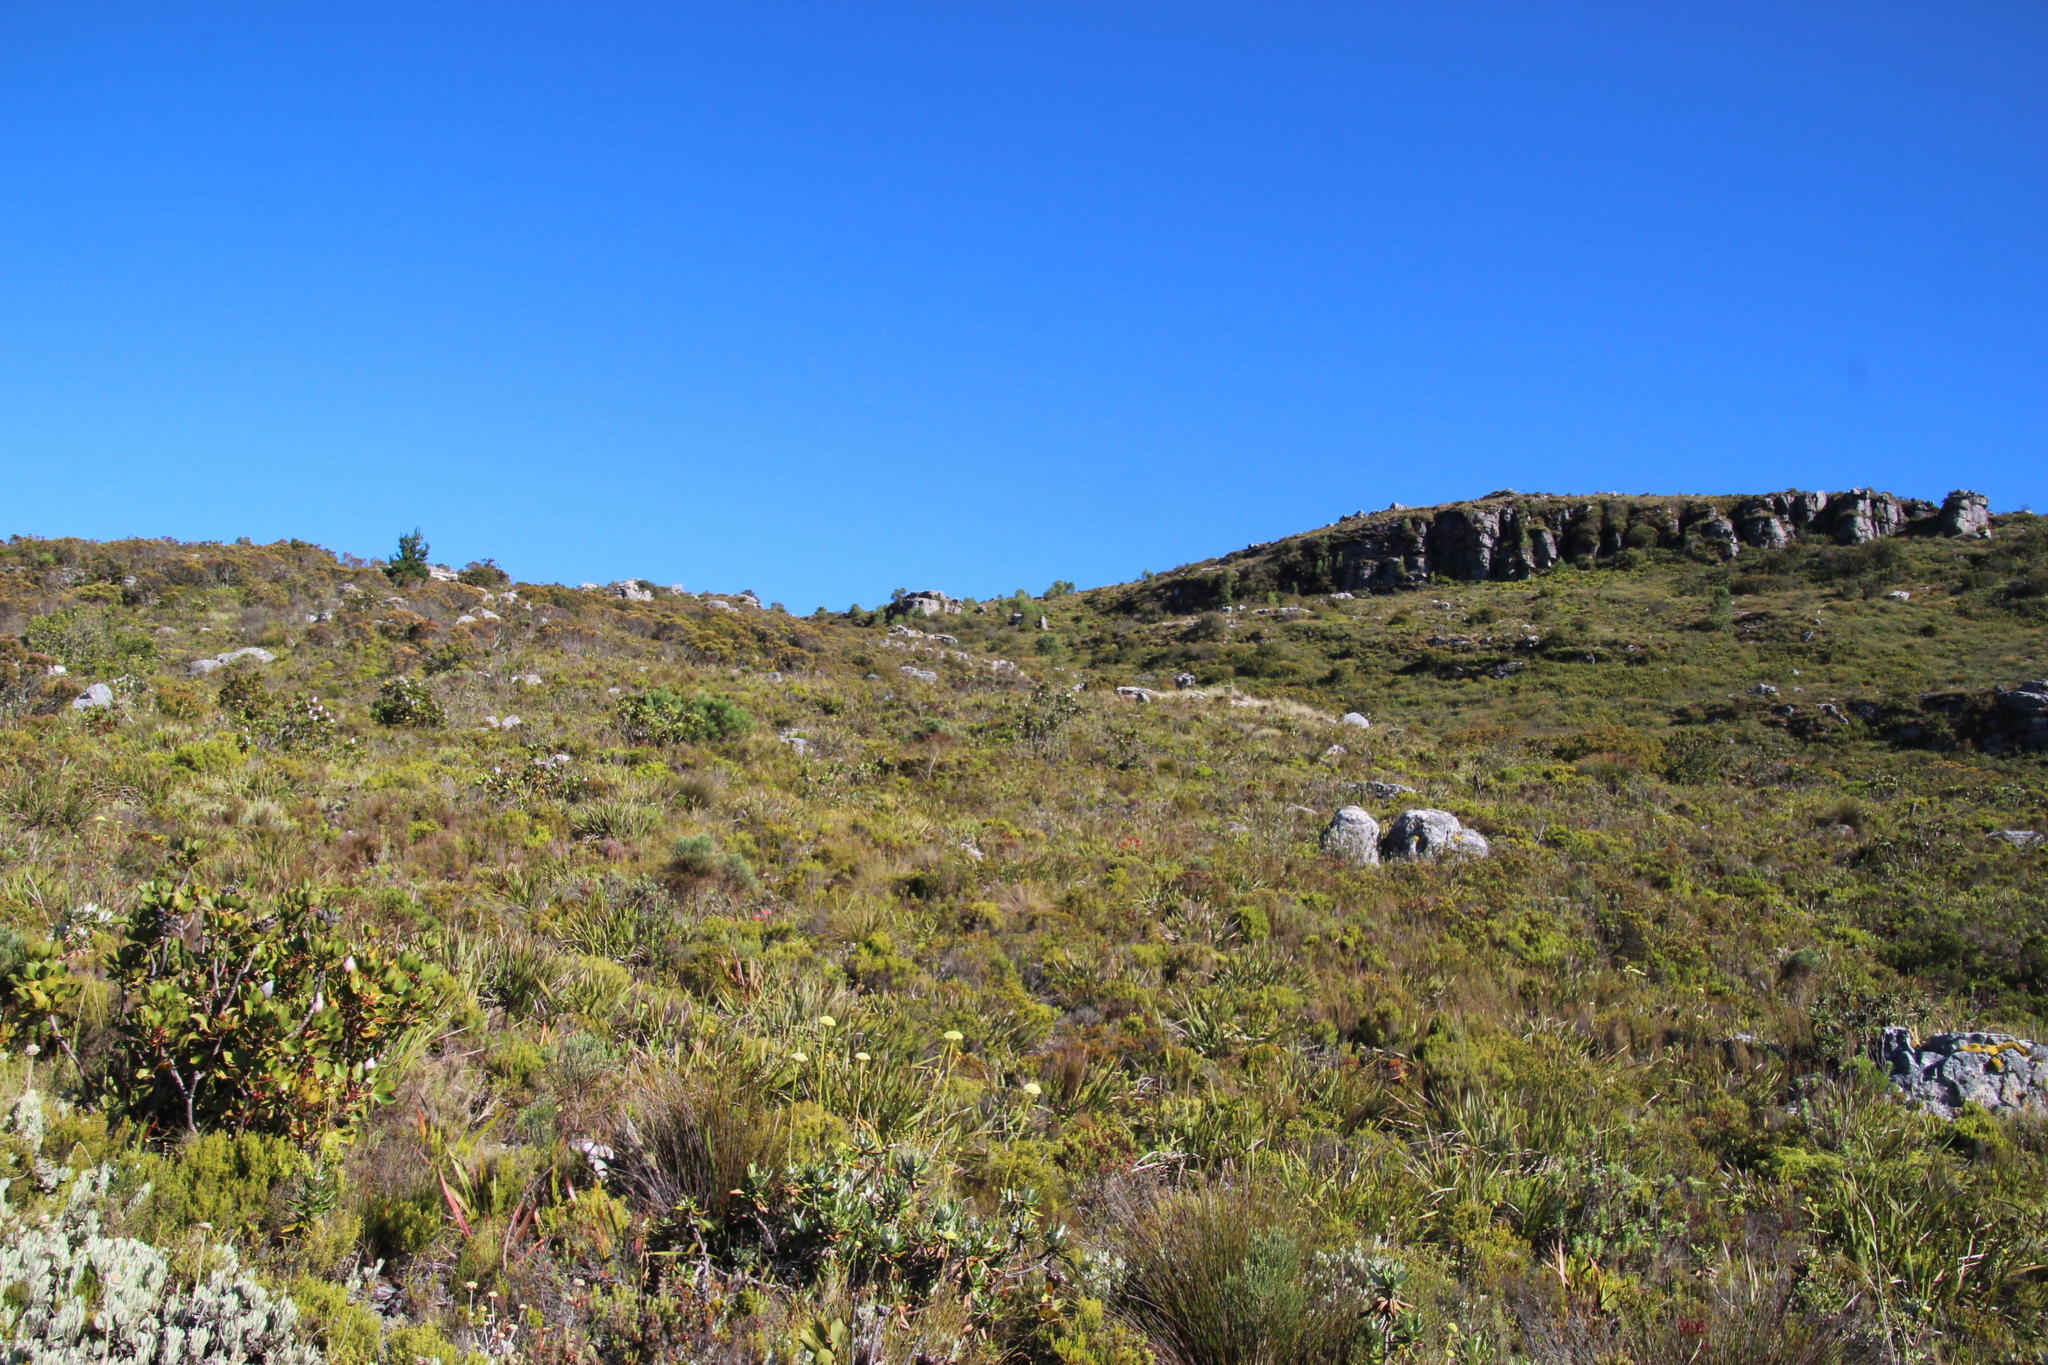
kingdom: Plantae
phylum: Tracheophyta
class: Pinopsida
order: Pinales
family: Pinaceae
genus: Pinus
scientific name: Pinus pinaster
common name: Maritime pine
